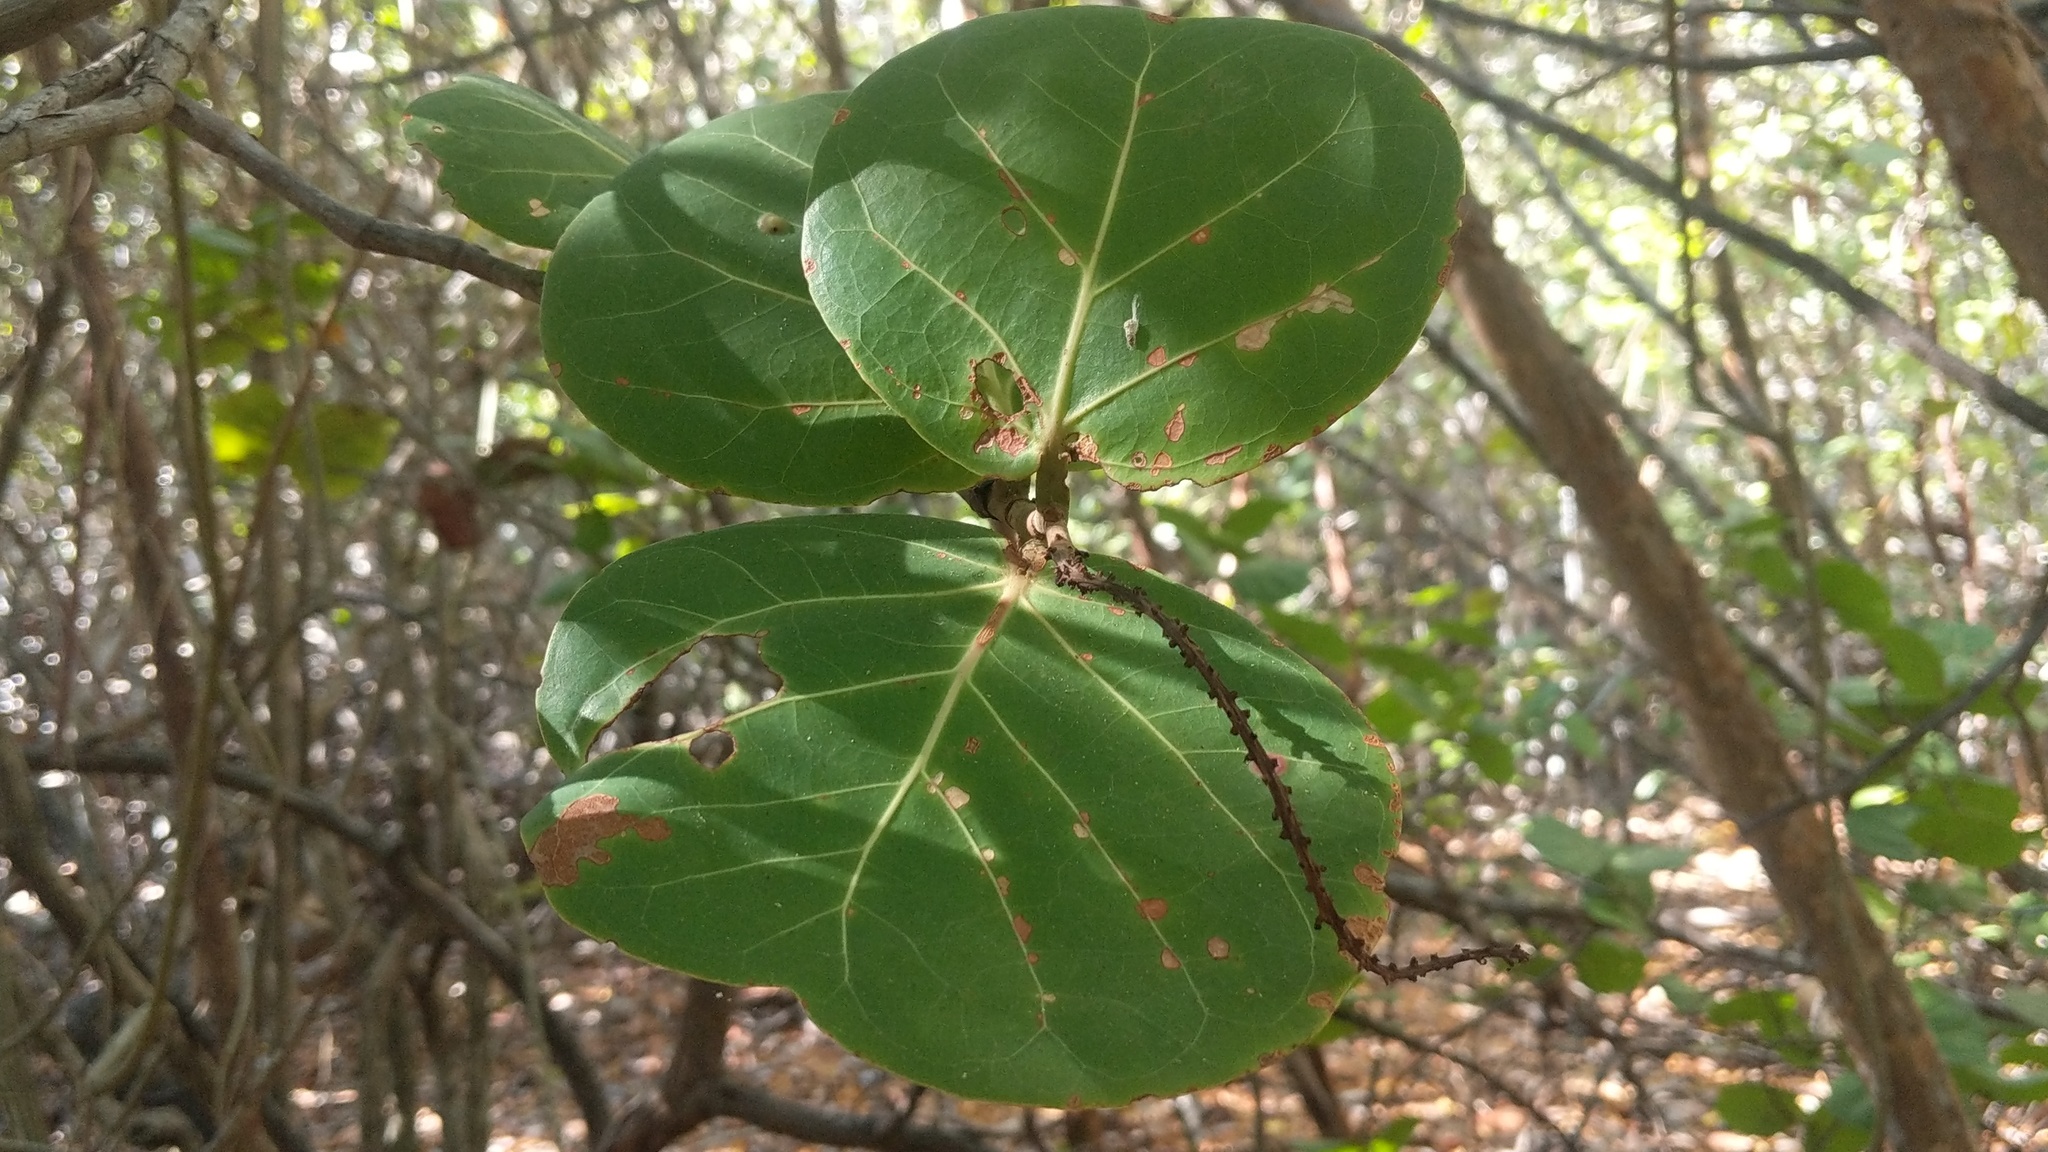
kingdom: Plantae
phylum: Tracheophyta
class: Magnoliopsida
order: Caryophyllales
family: Polygonaceae
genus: Coccoloba
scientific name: Coccoloba uvifera
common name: Seagrape
